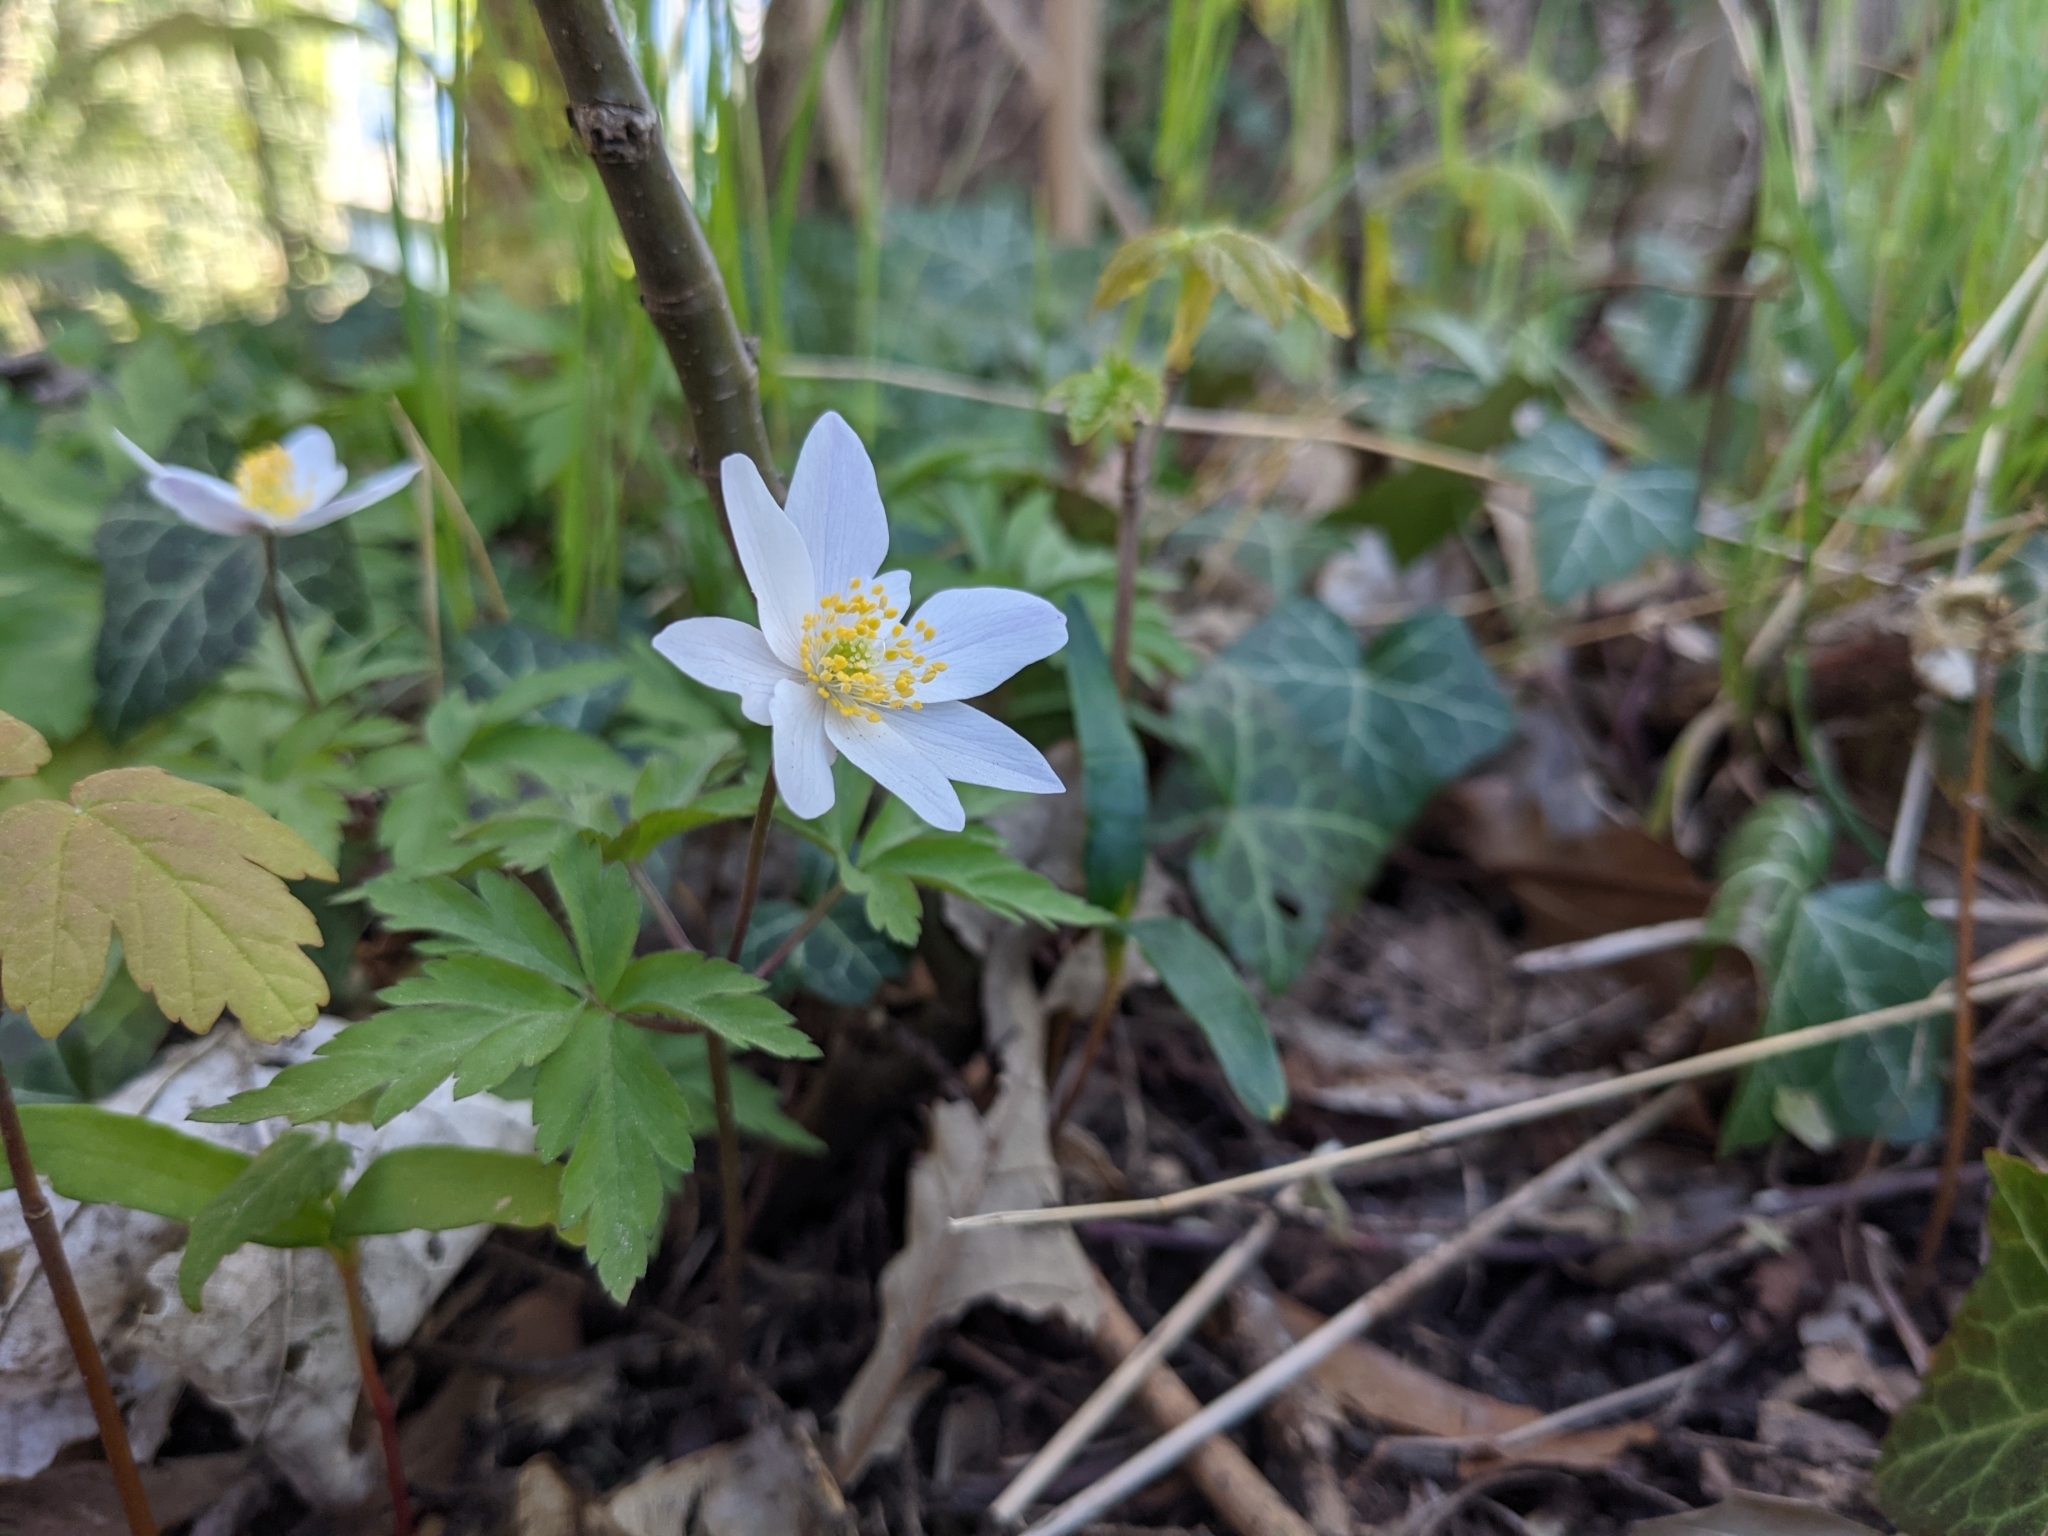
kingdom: Plantae
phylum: Tracheophyta
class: Magnoliopsida
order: Ranunculales
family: Ranunculaceae
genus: Anemone
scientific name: Anemone nemorosa
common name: Wood anemone
